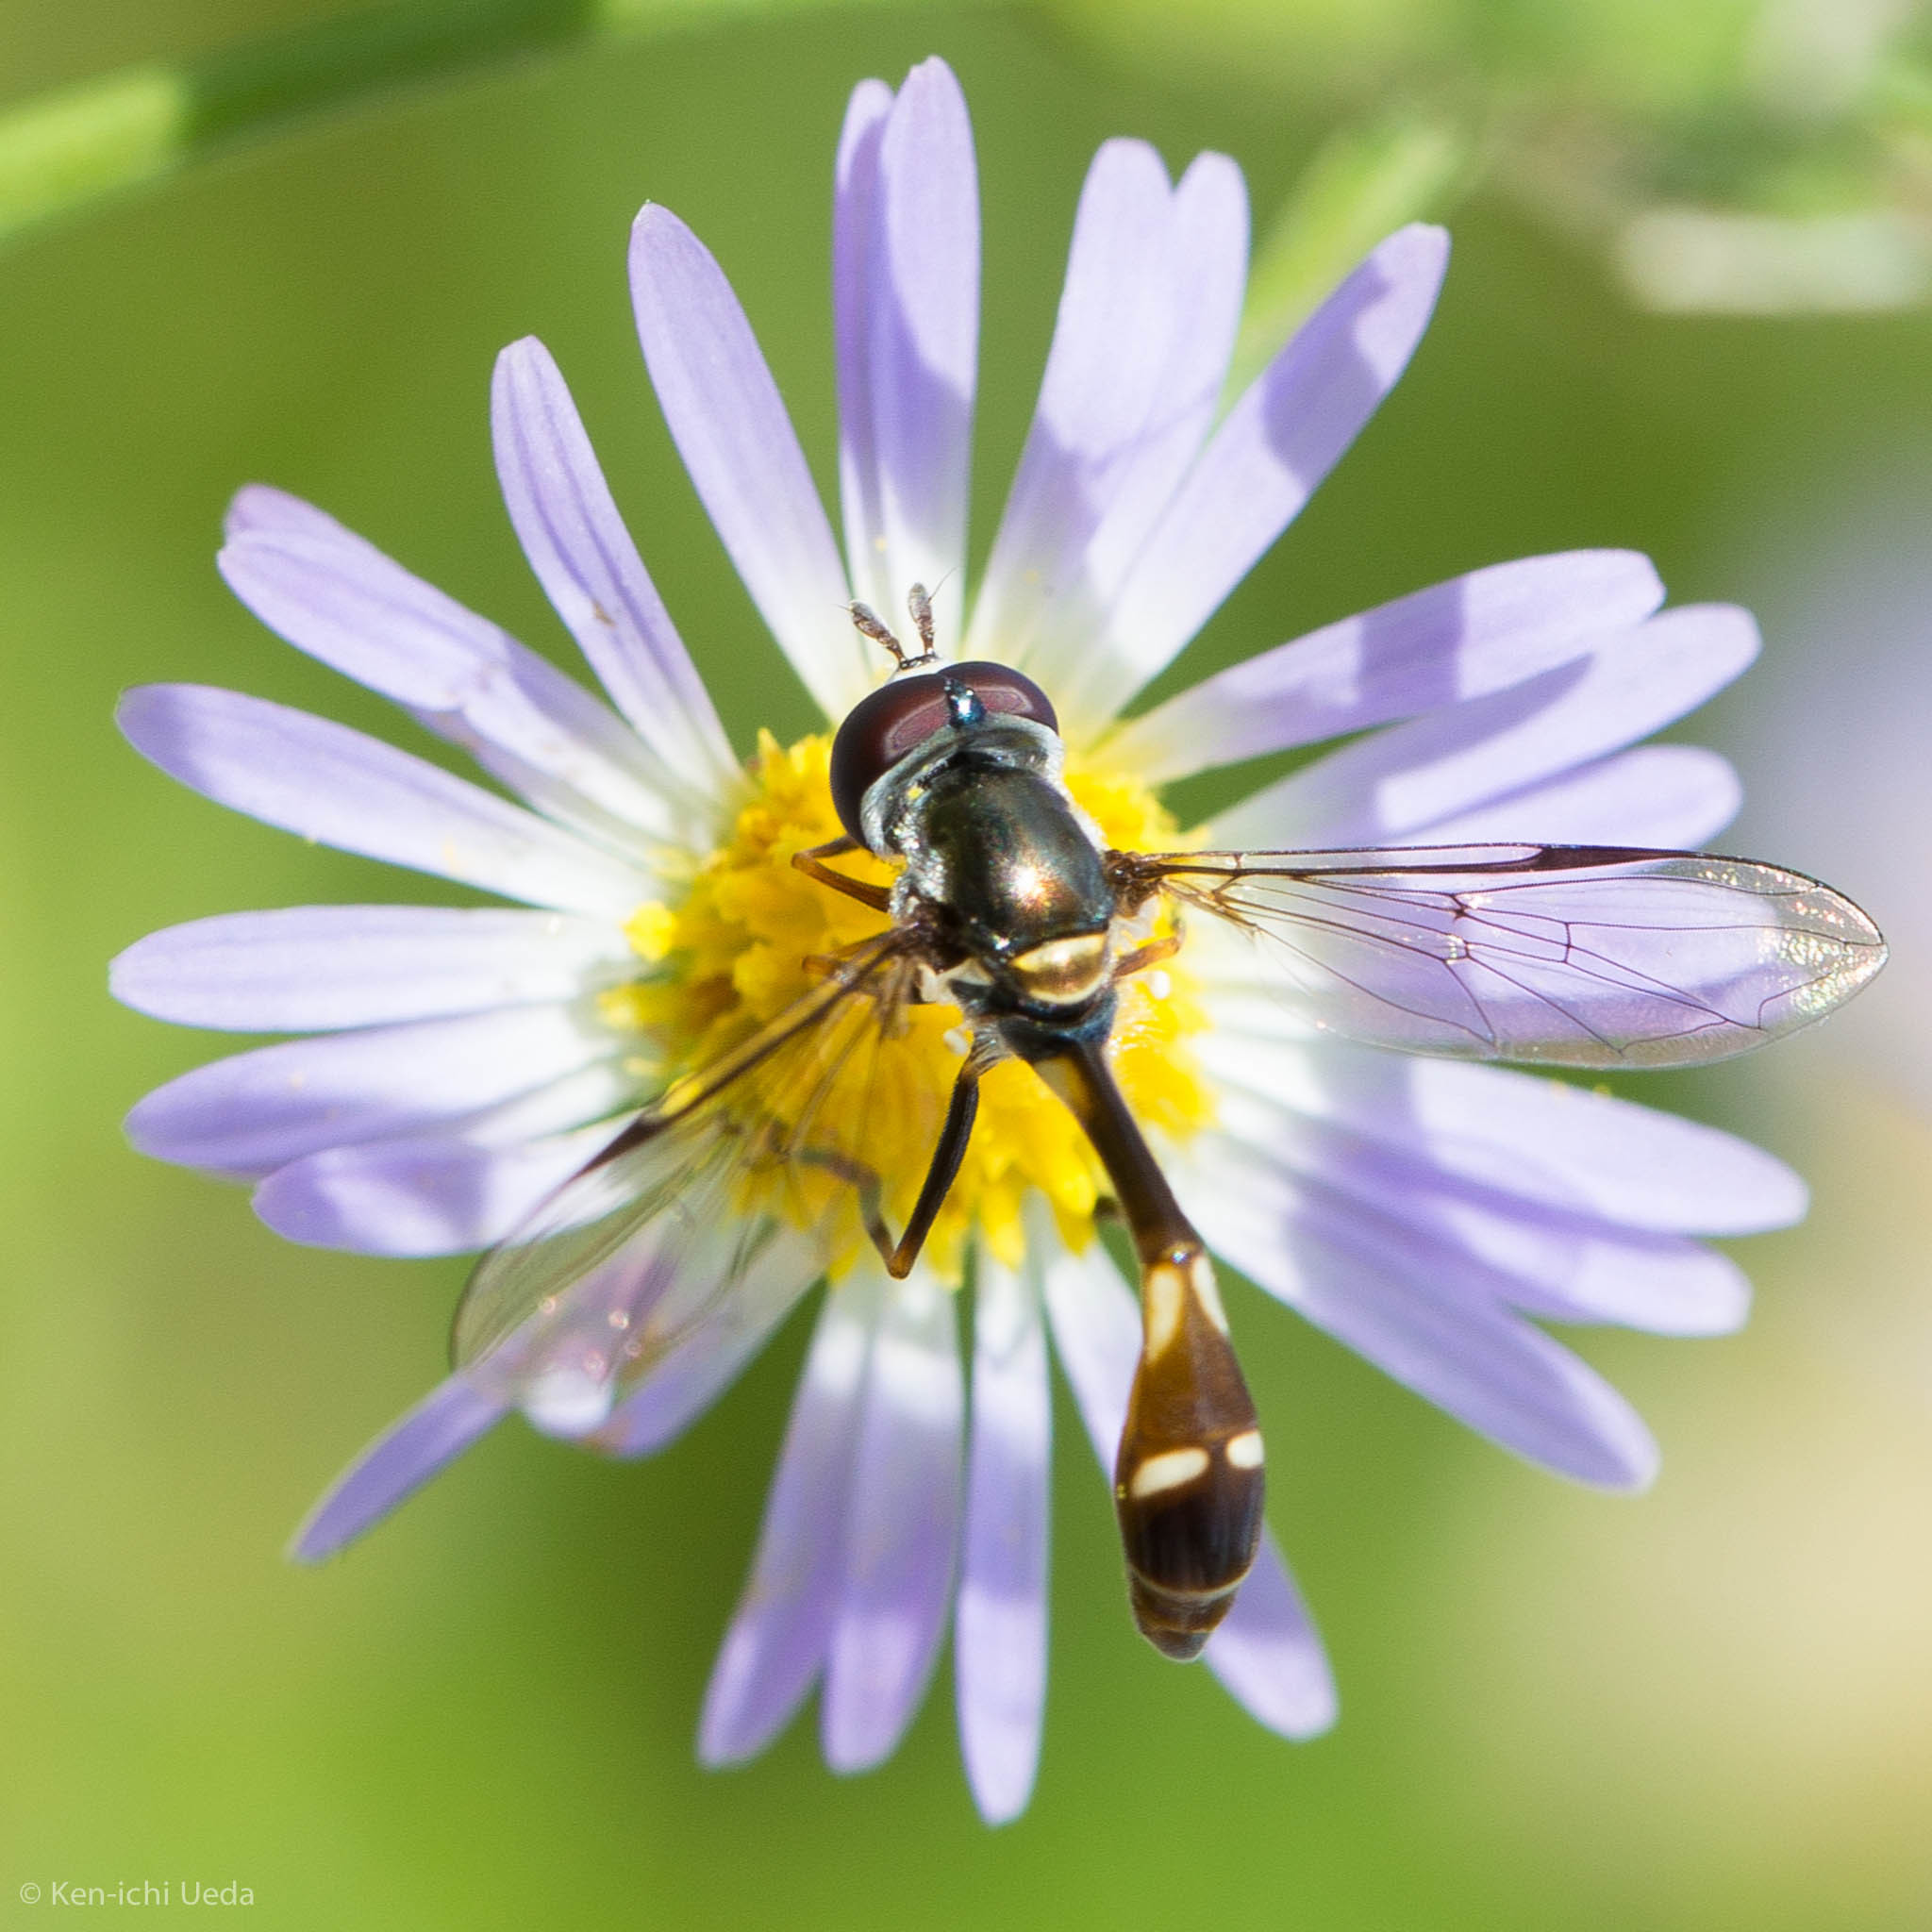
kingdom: Animalia
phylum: Arthropoda
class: Insecta
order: Diptera
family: Syrphidae
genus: Dioprosopa
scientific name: Dioprosopa clavatus
